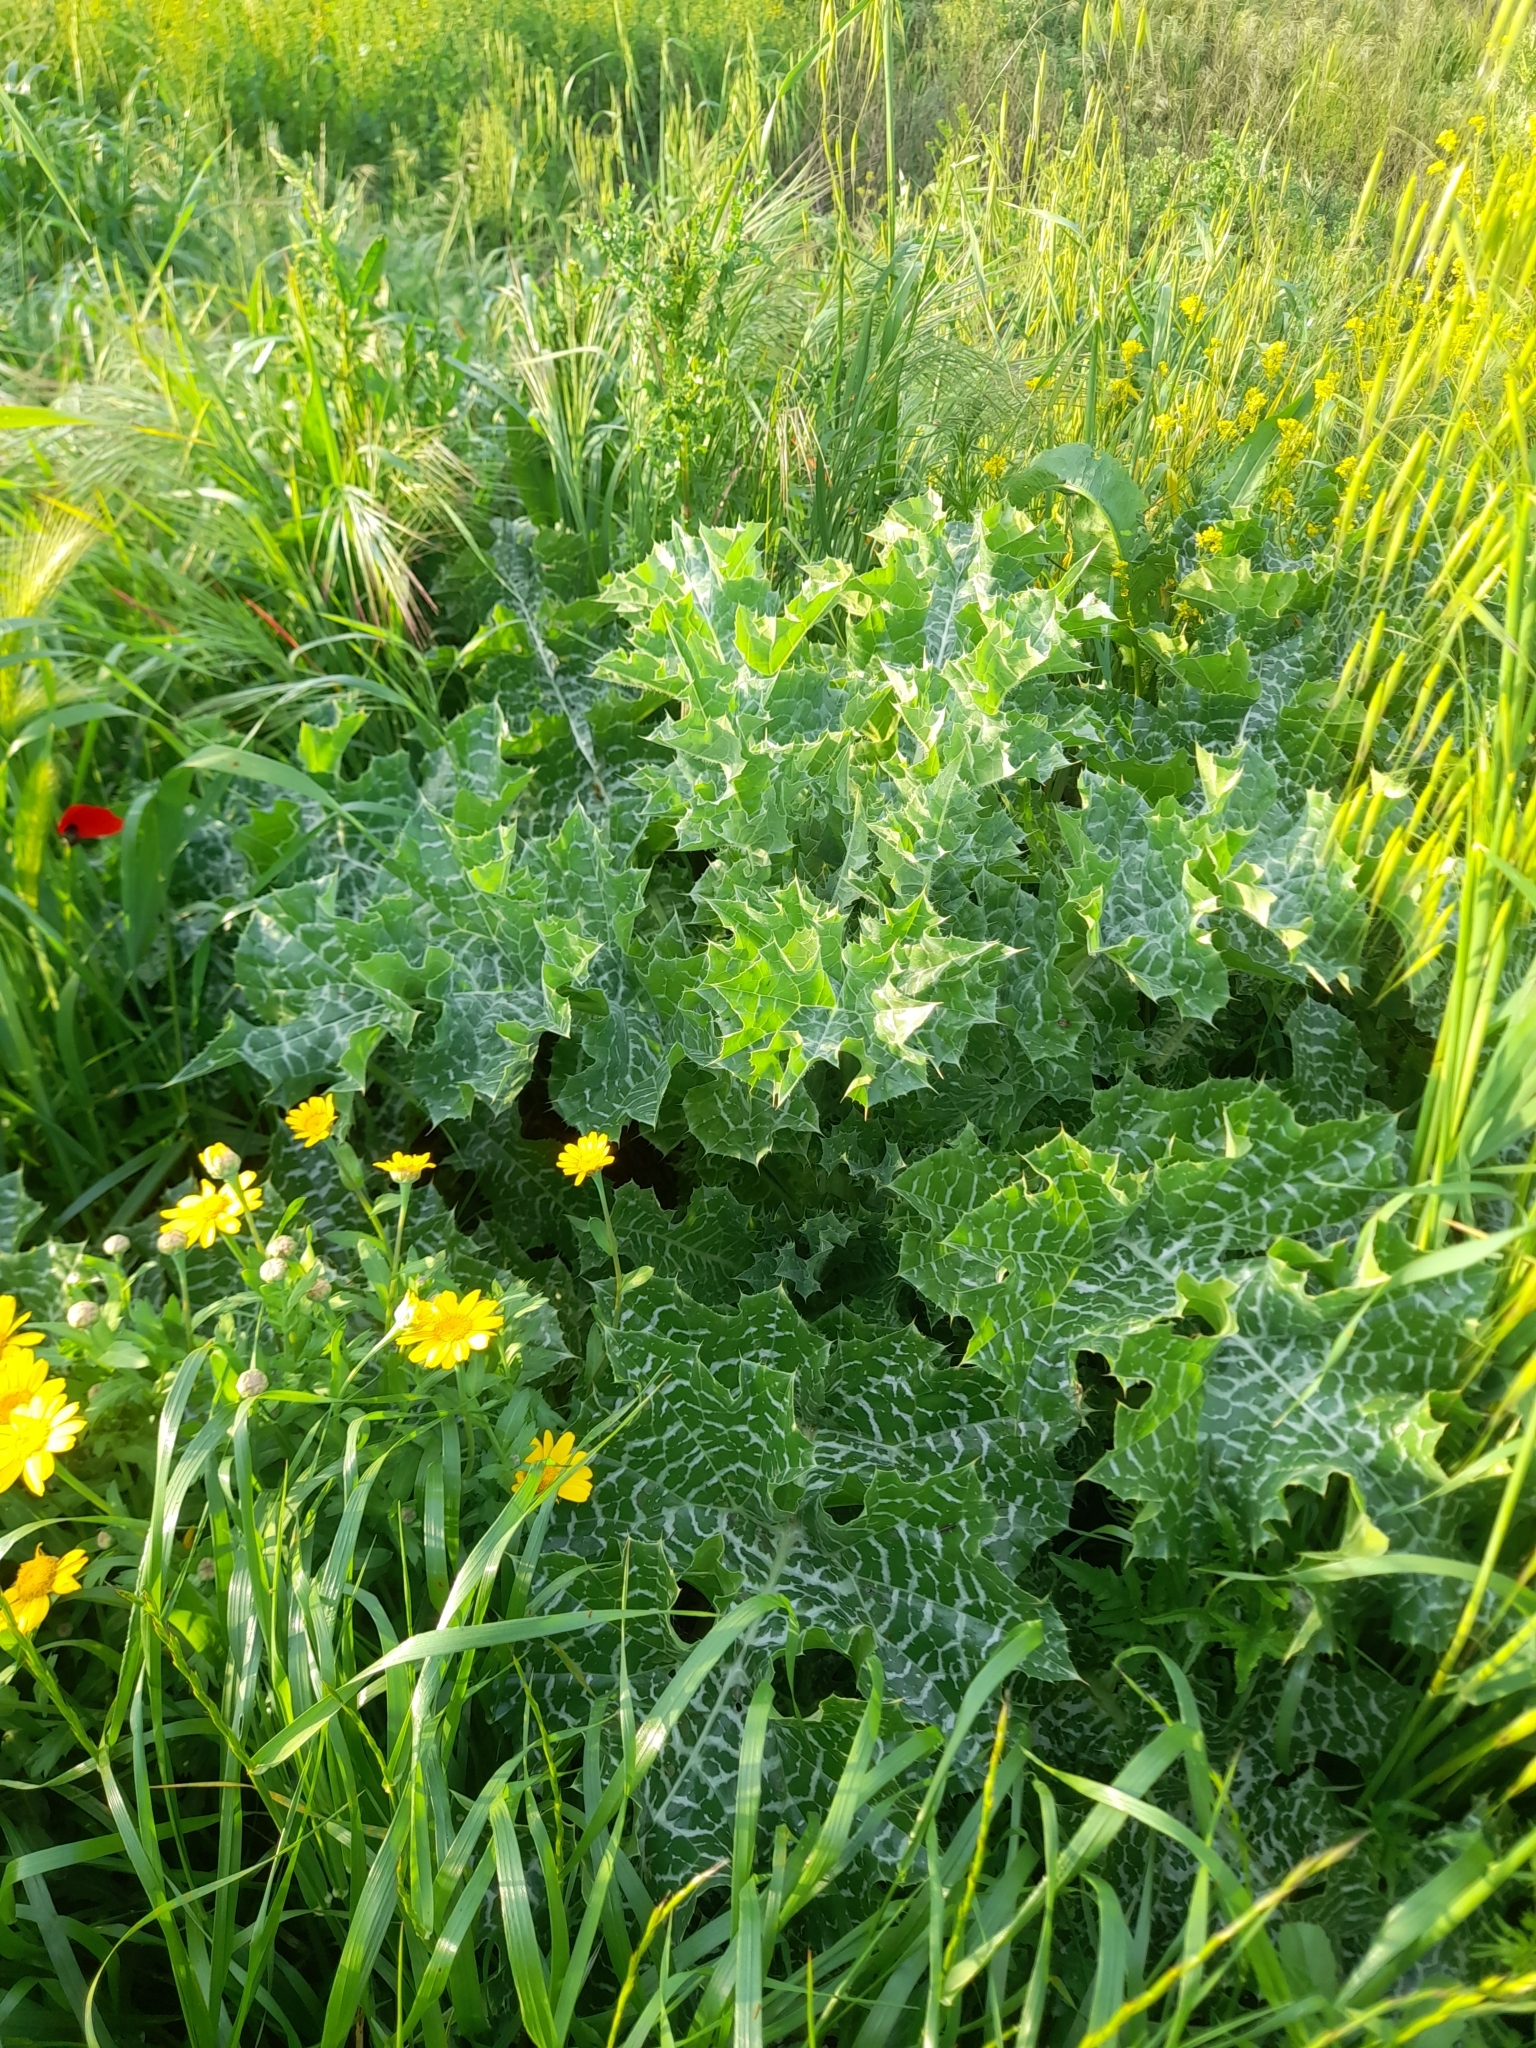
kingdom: Plantae
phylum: Tracheophyta
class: Magnoliopsida
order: Asterales
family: Asteraceae
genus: Silybum
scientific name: Silybum marianum
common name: Milk thistle
